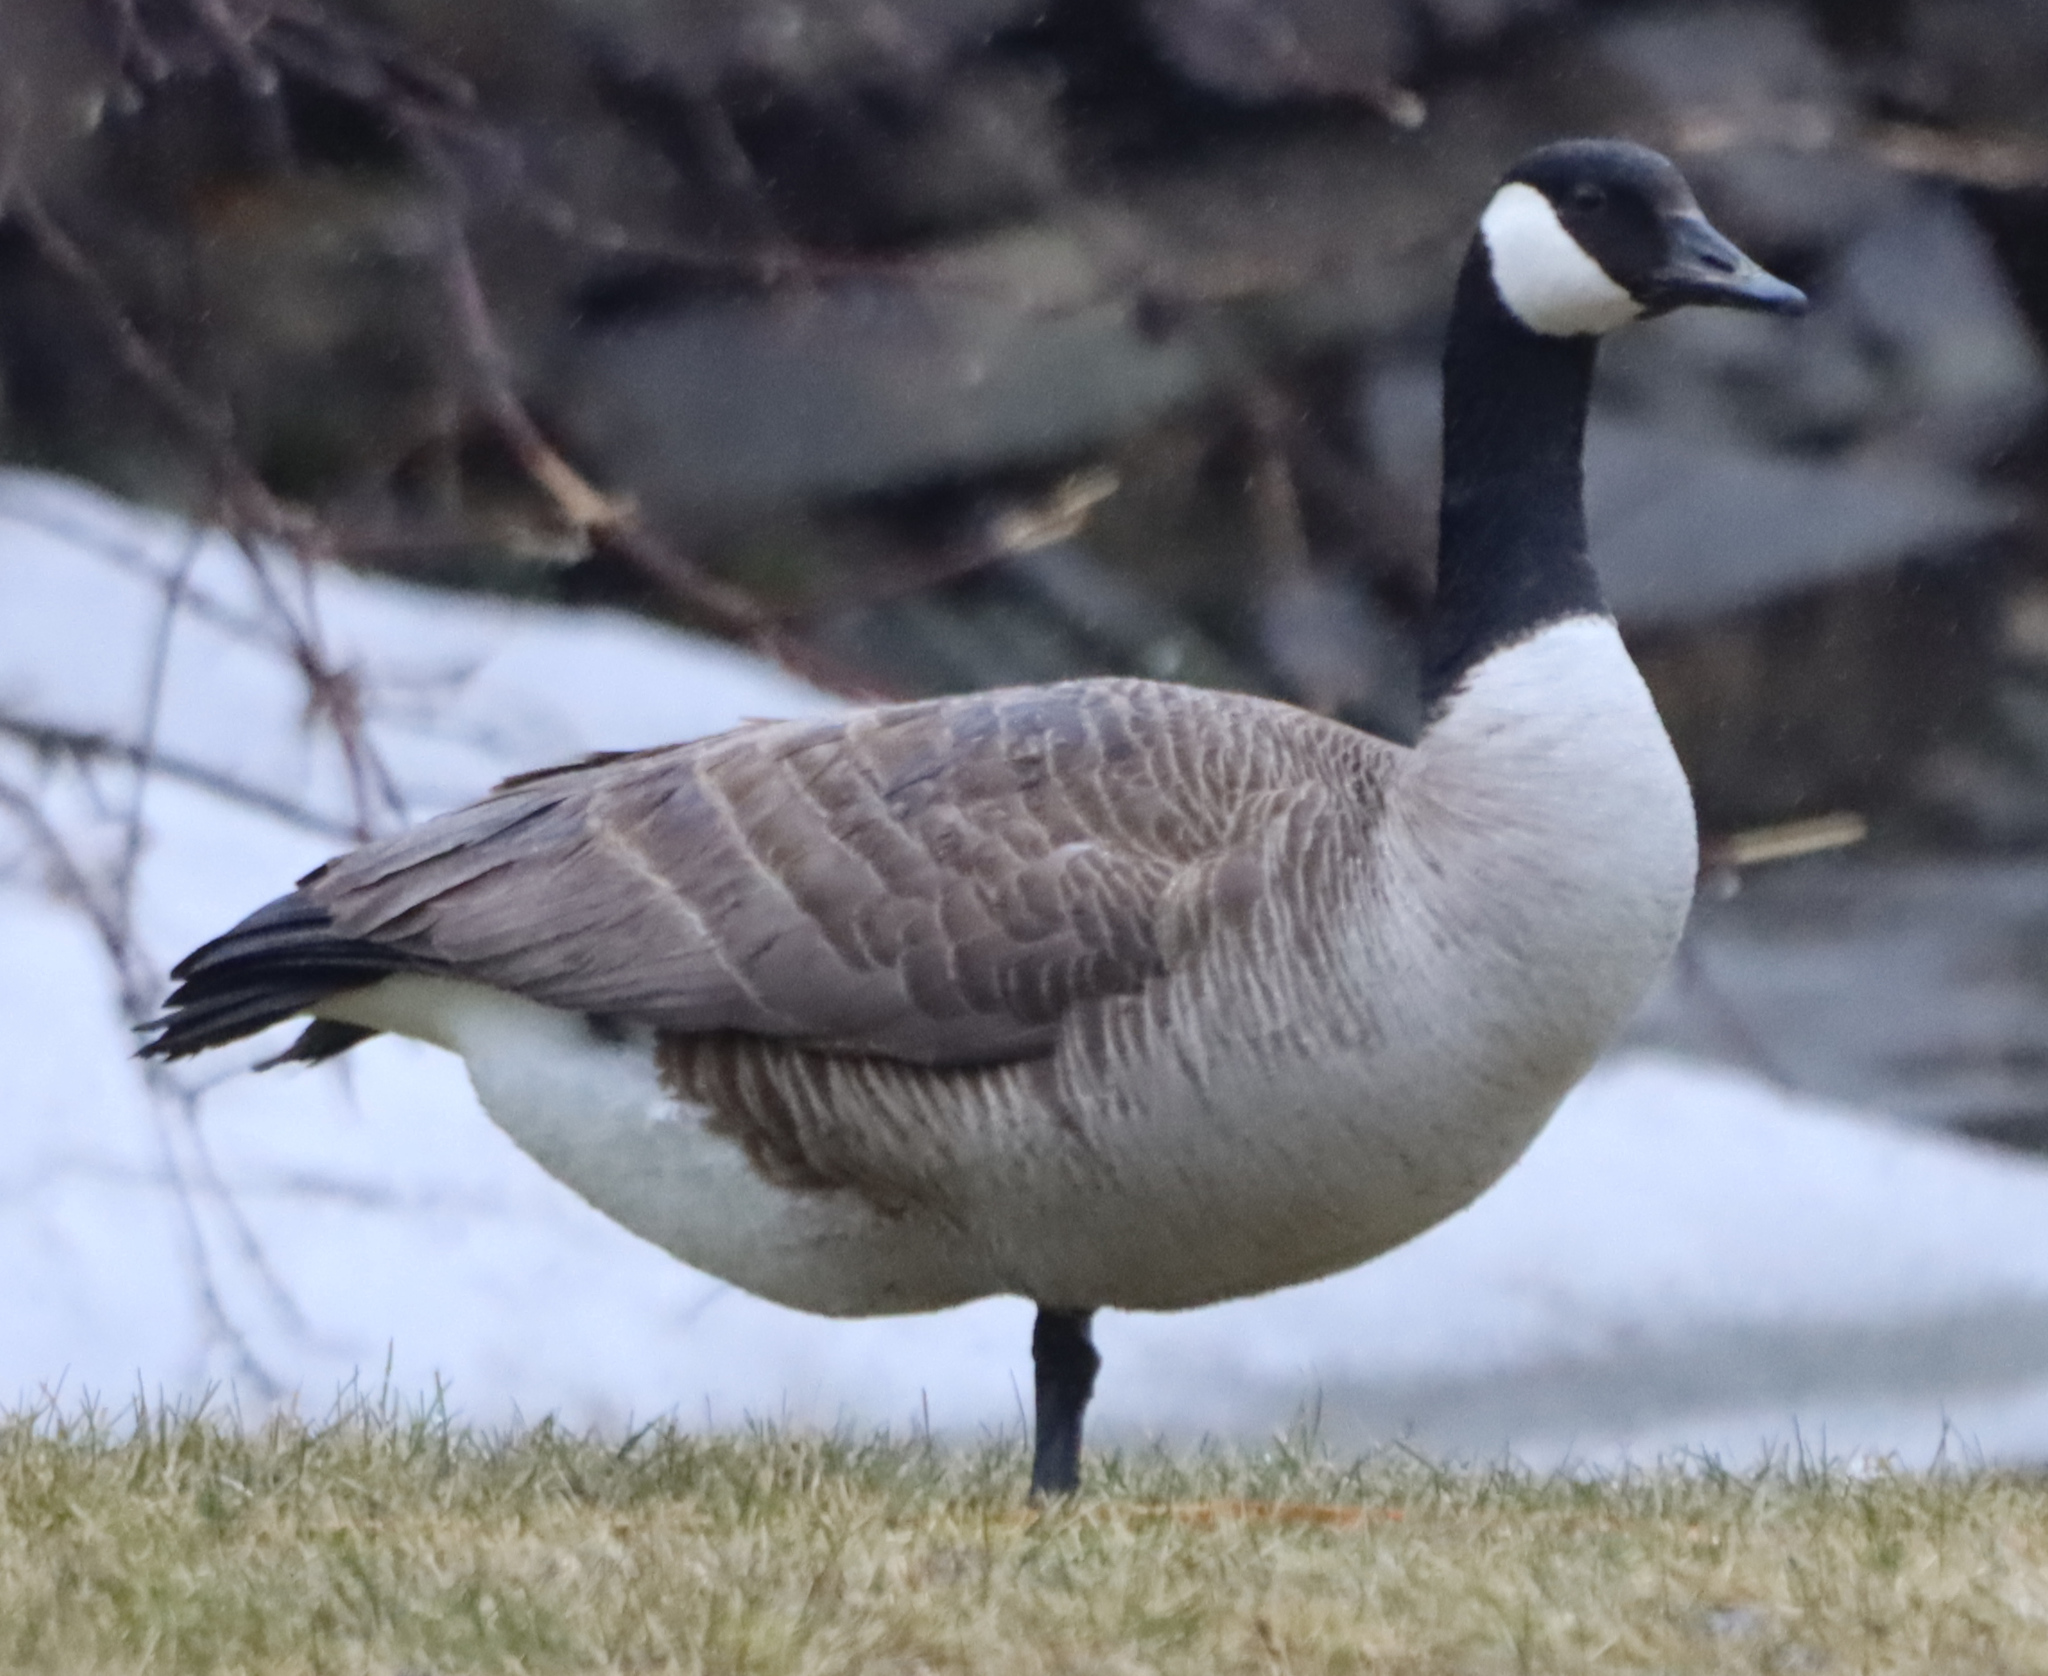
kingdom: Animalia
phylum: Chordata
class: Aves
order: Anseriformes
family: Anatidae
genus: Branta
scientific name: Branta canadensis
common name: Canada goose
